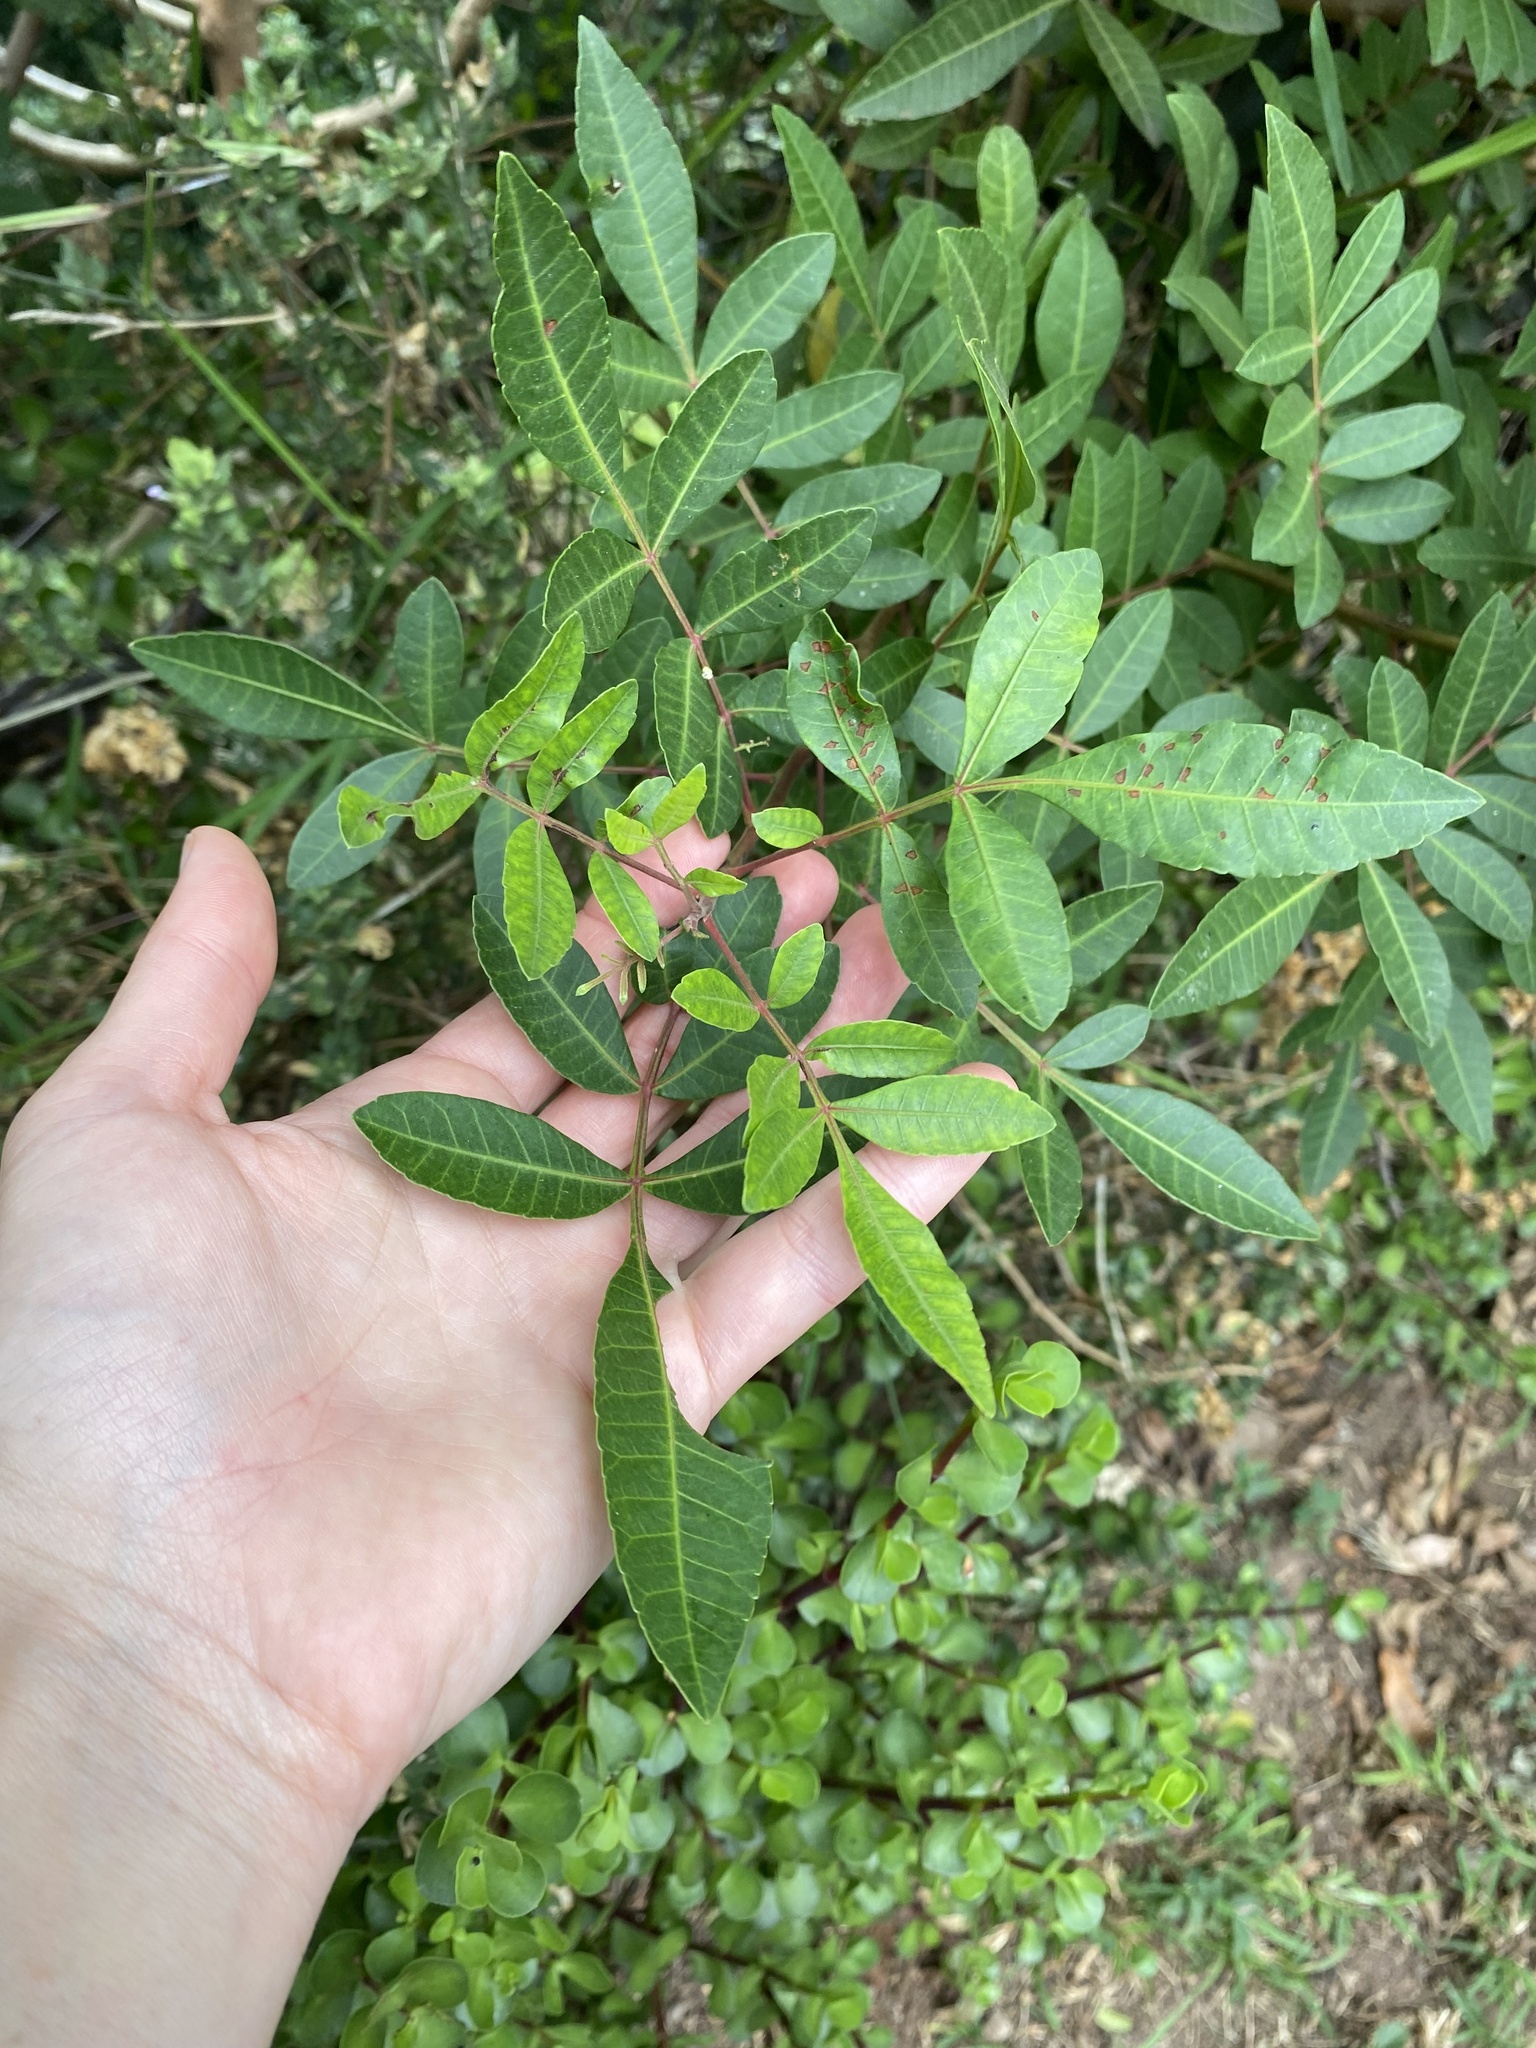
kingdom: Plantae
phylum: Tracheophyta
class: Magnoliopsida
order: Sapindales
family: Anacardiaceae
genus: Schinus
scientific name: Schinus terebinthifolia
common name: Brazilian peppertree
